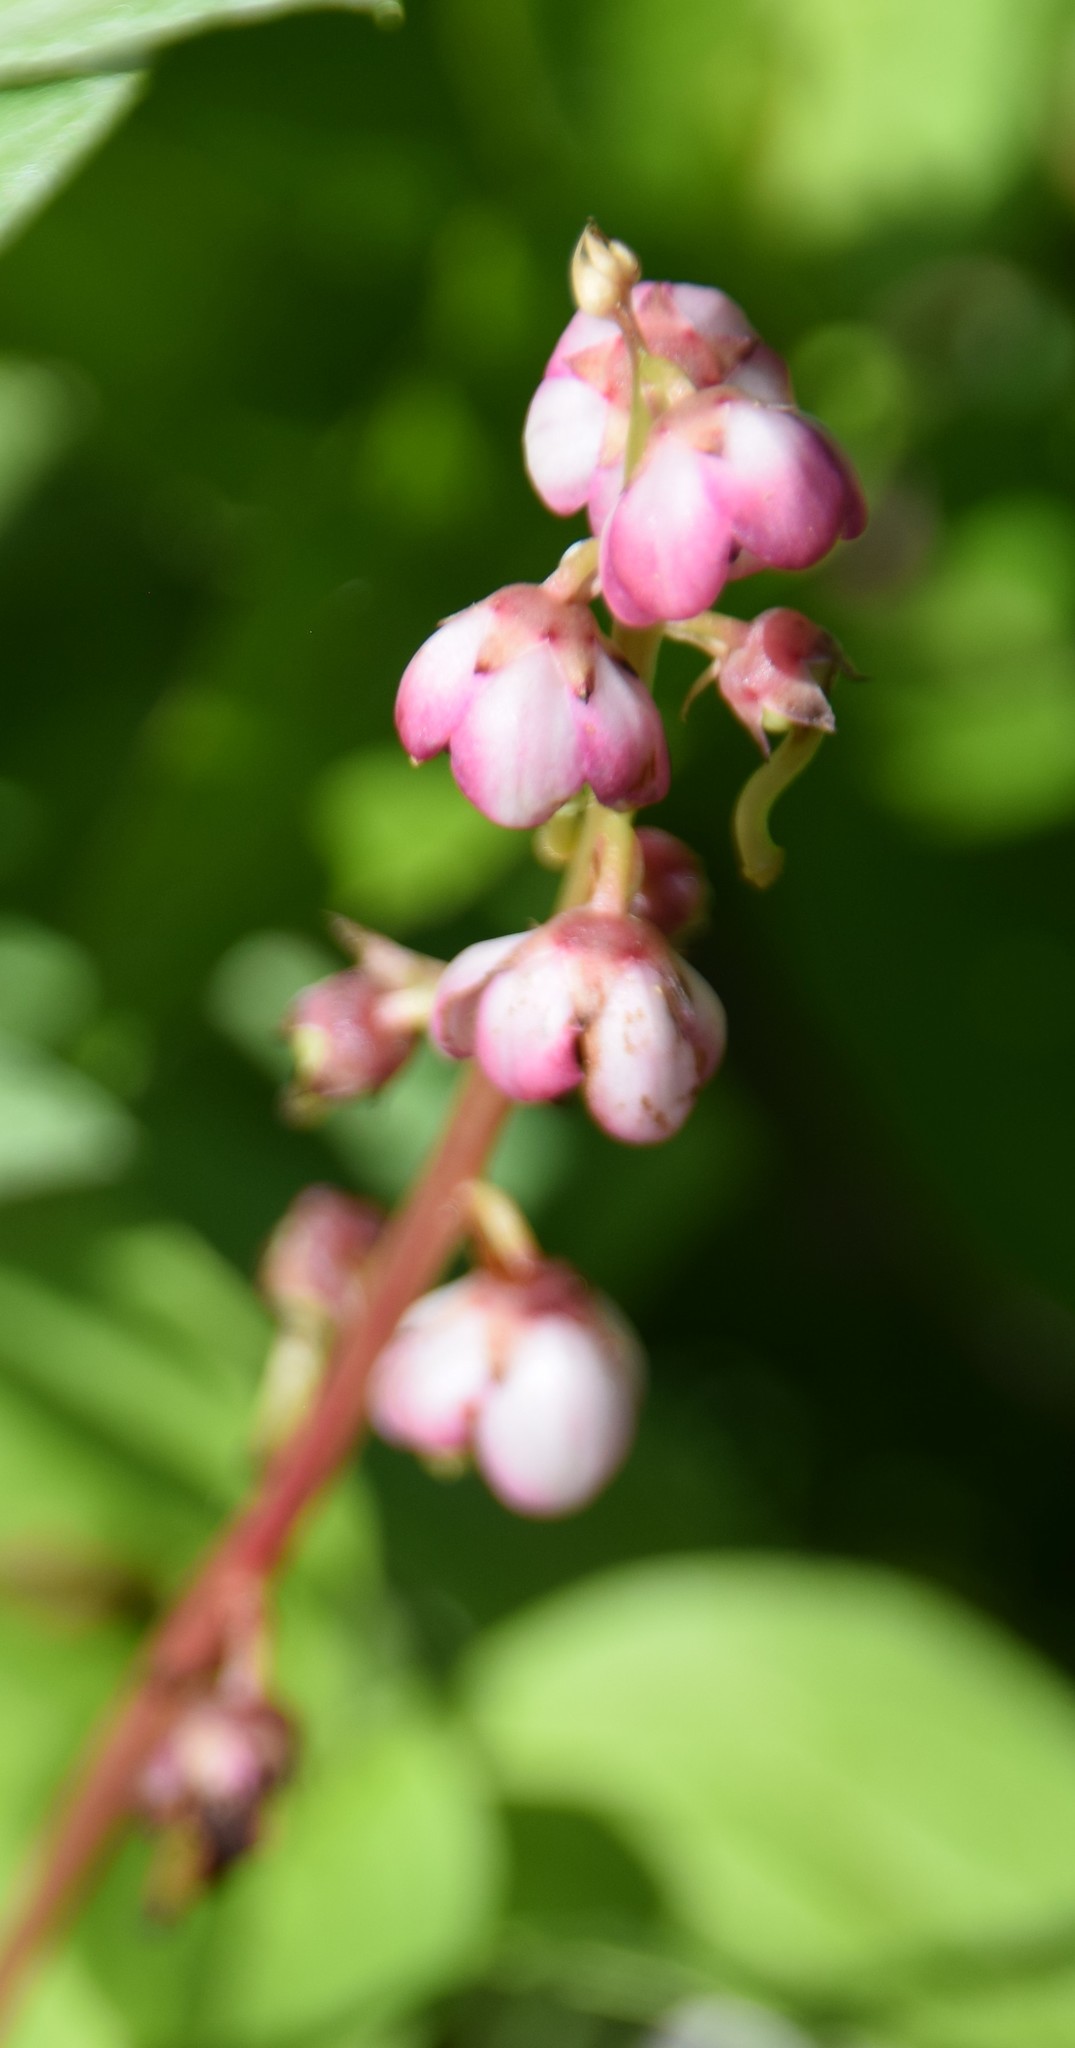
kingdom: Plantae
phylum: Tracheophyta
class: Magnoliopsida
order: Ericales
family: Ericaceae
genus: Pyrola
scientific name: Pyrola asarifolia
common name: Bog wintergreen
